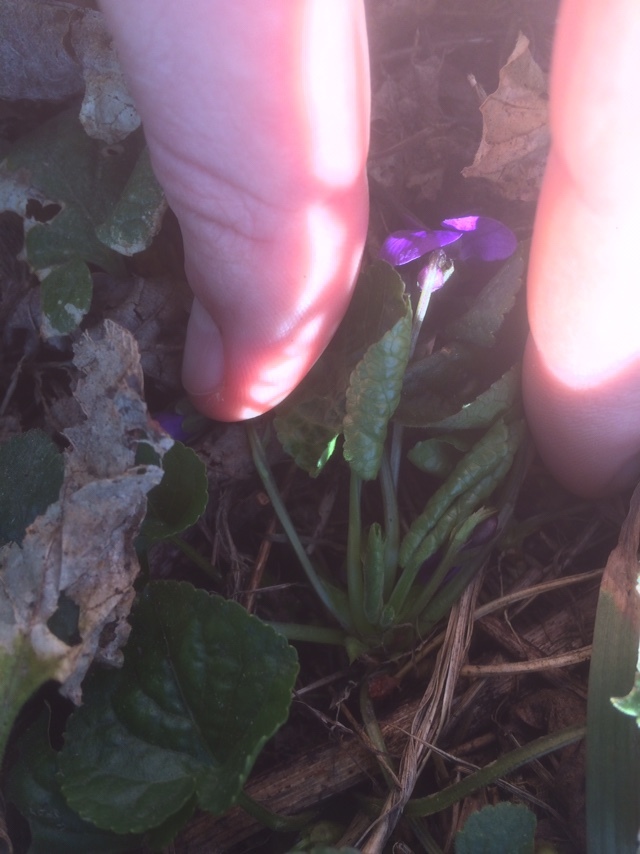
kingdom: Plantae
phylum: Tracheophyta
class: Magnoliopsida
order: Malpighiales
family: Violaceae
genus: Viola
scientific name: Viola odorata
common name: Sweet violet
